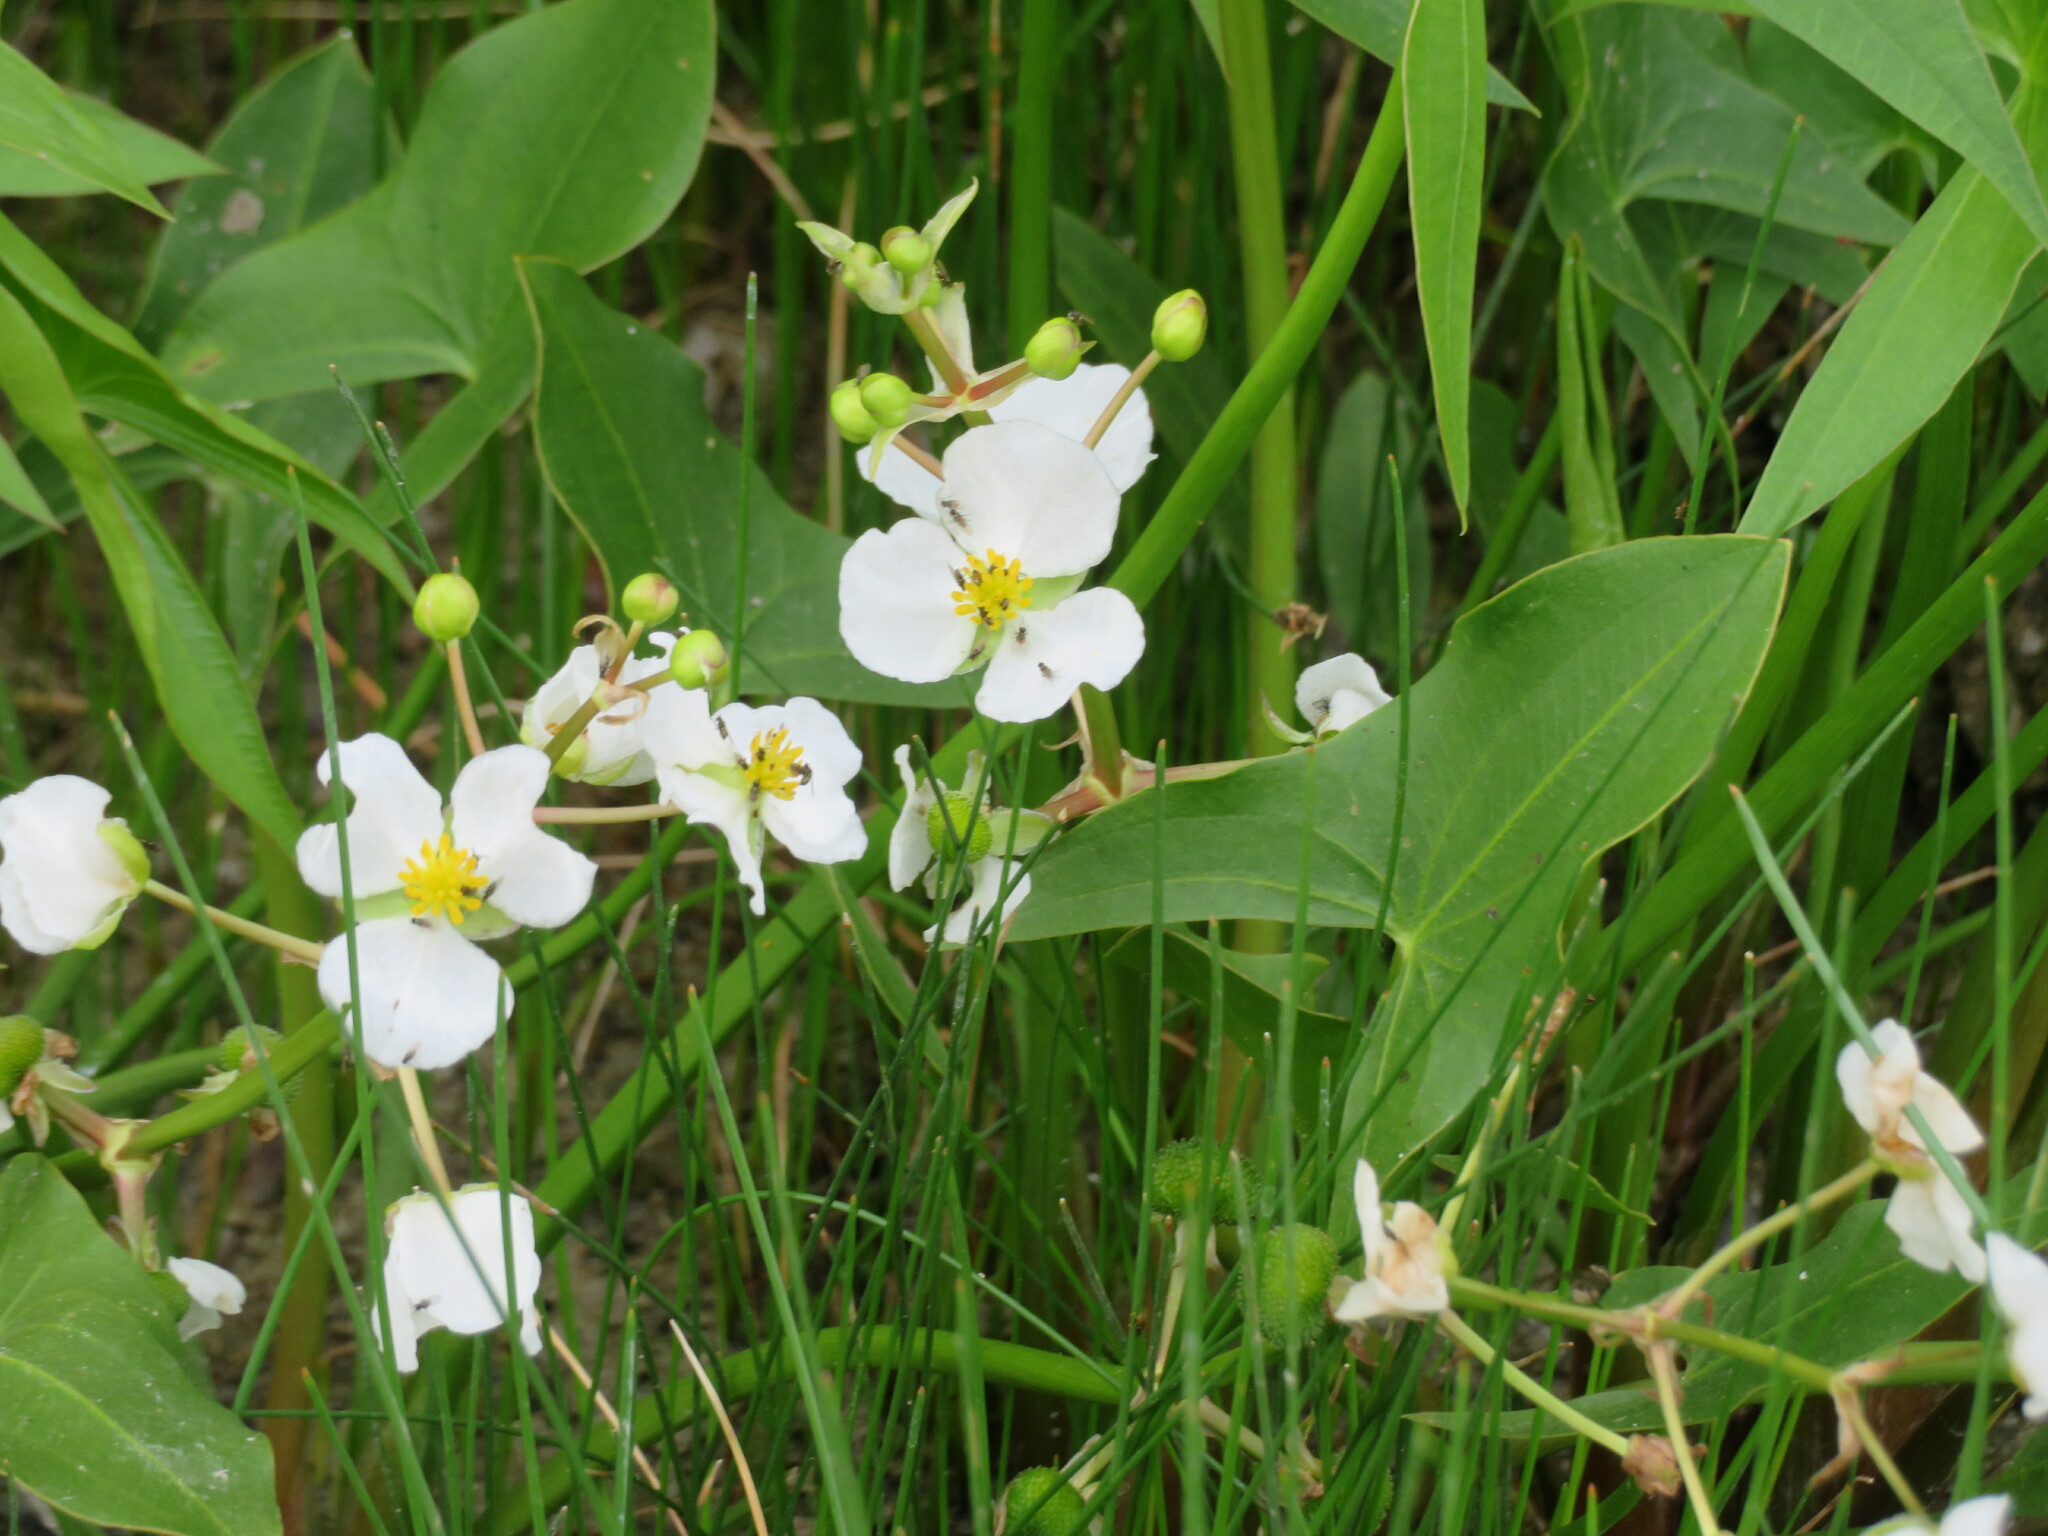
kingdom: Plantae
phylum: Tracheophyta
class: Liliopsida
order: Alismatales
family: Alismataceae
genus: Sagittaria
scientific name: Sagittaria cuneata
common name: Northern arrowhead
